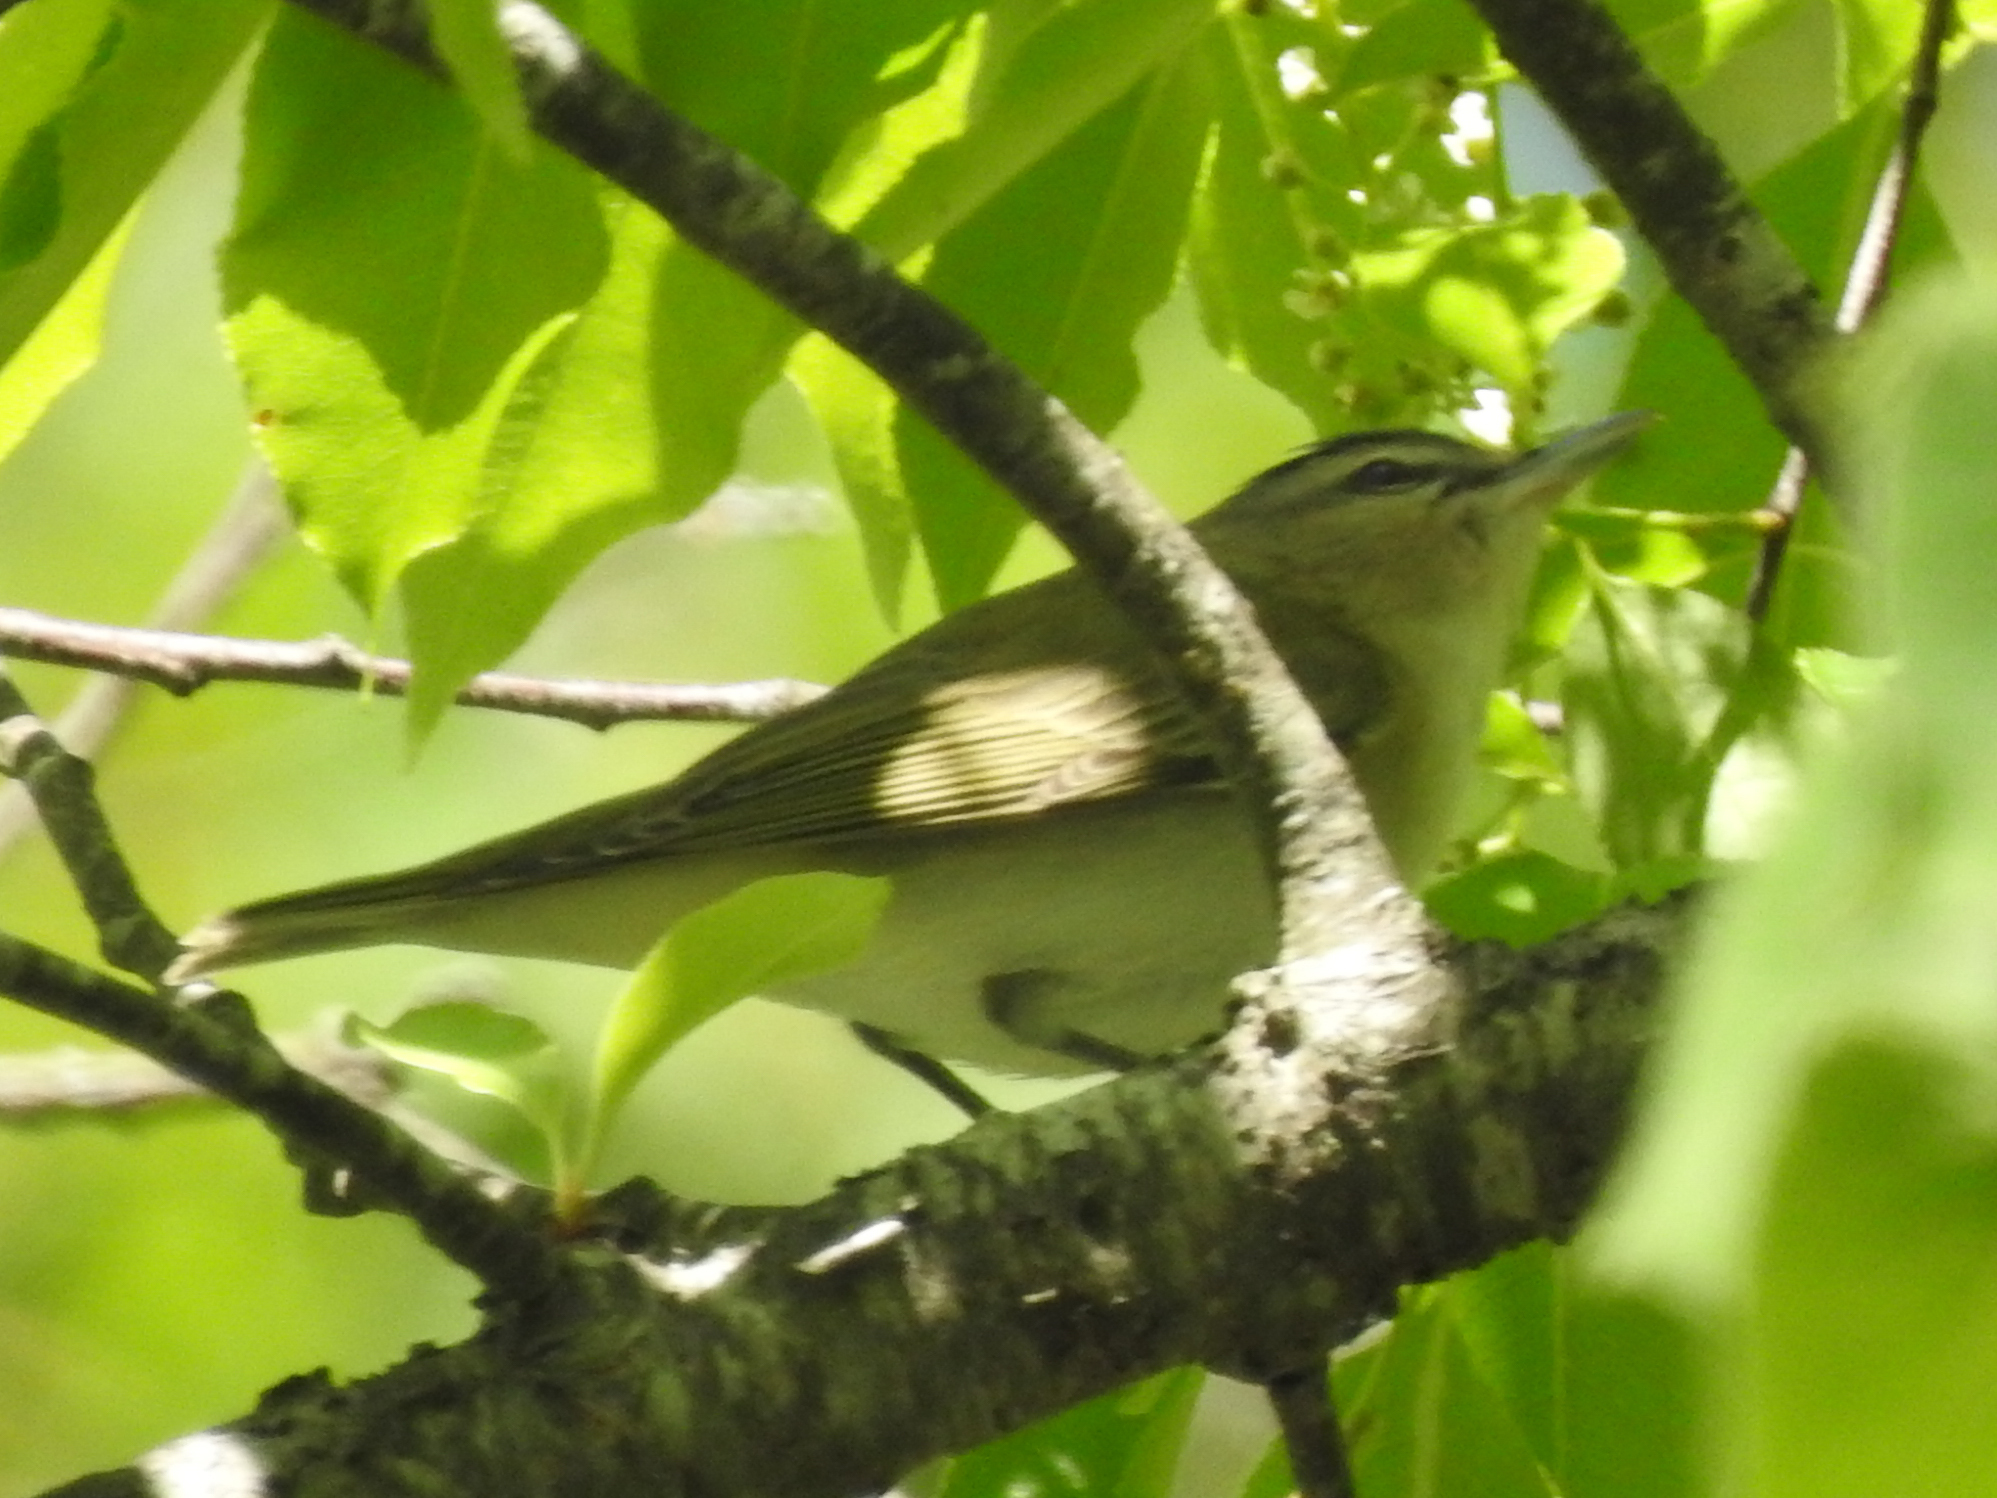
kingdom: Animalia
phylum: Chordata
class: Aves
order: Passeriformes
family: Vireonidae
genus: Vireo
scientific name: Vireo olivaceus
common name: Red-eyed vireo
